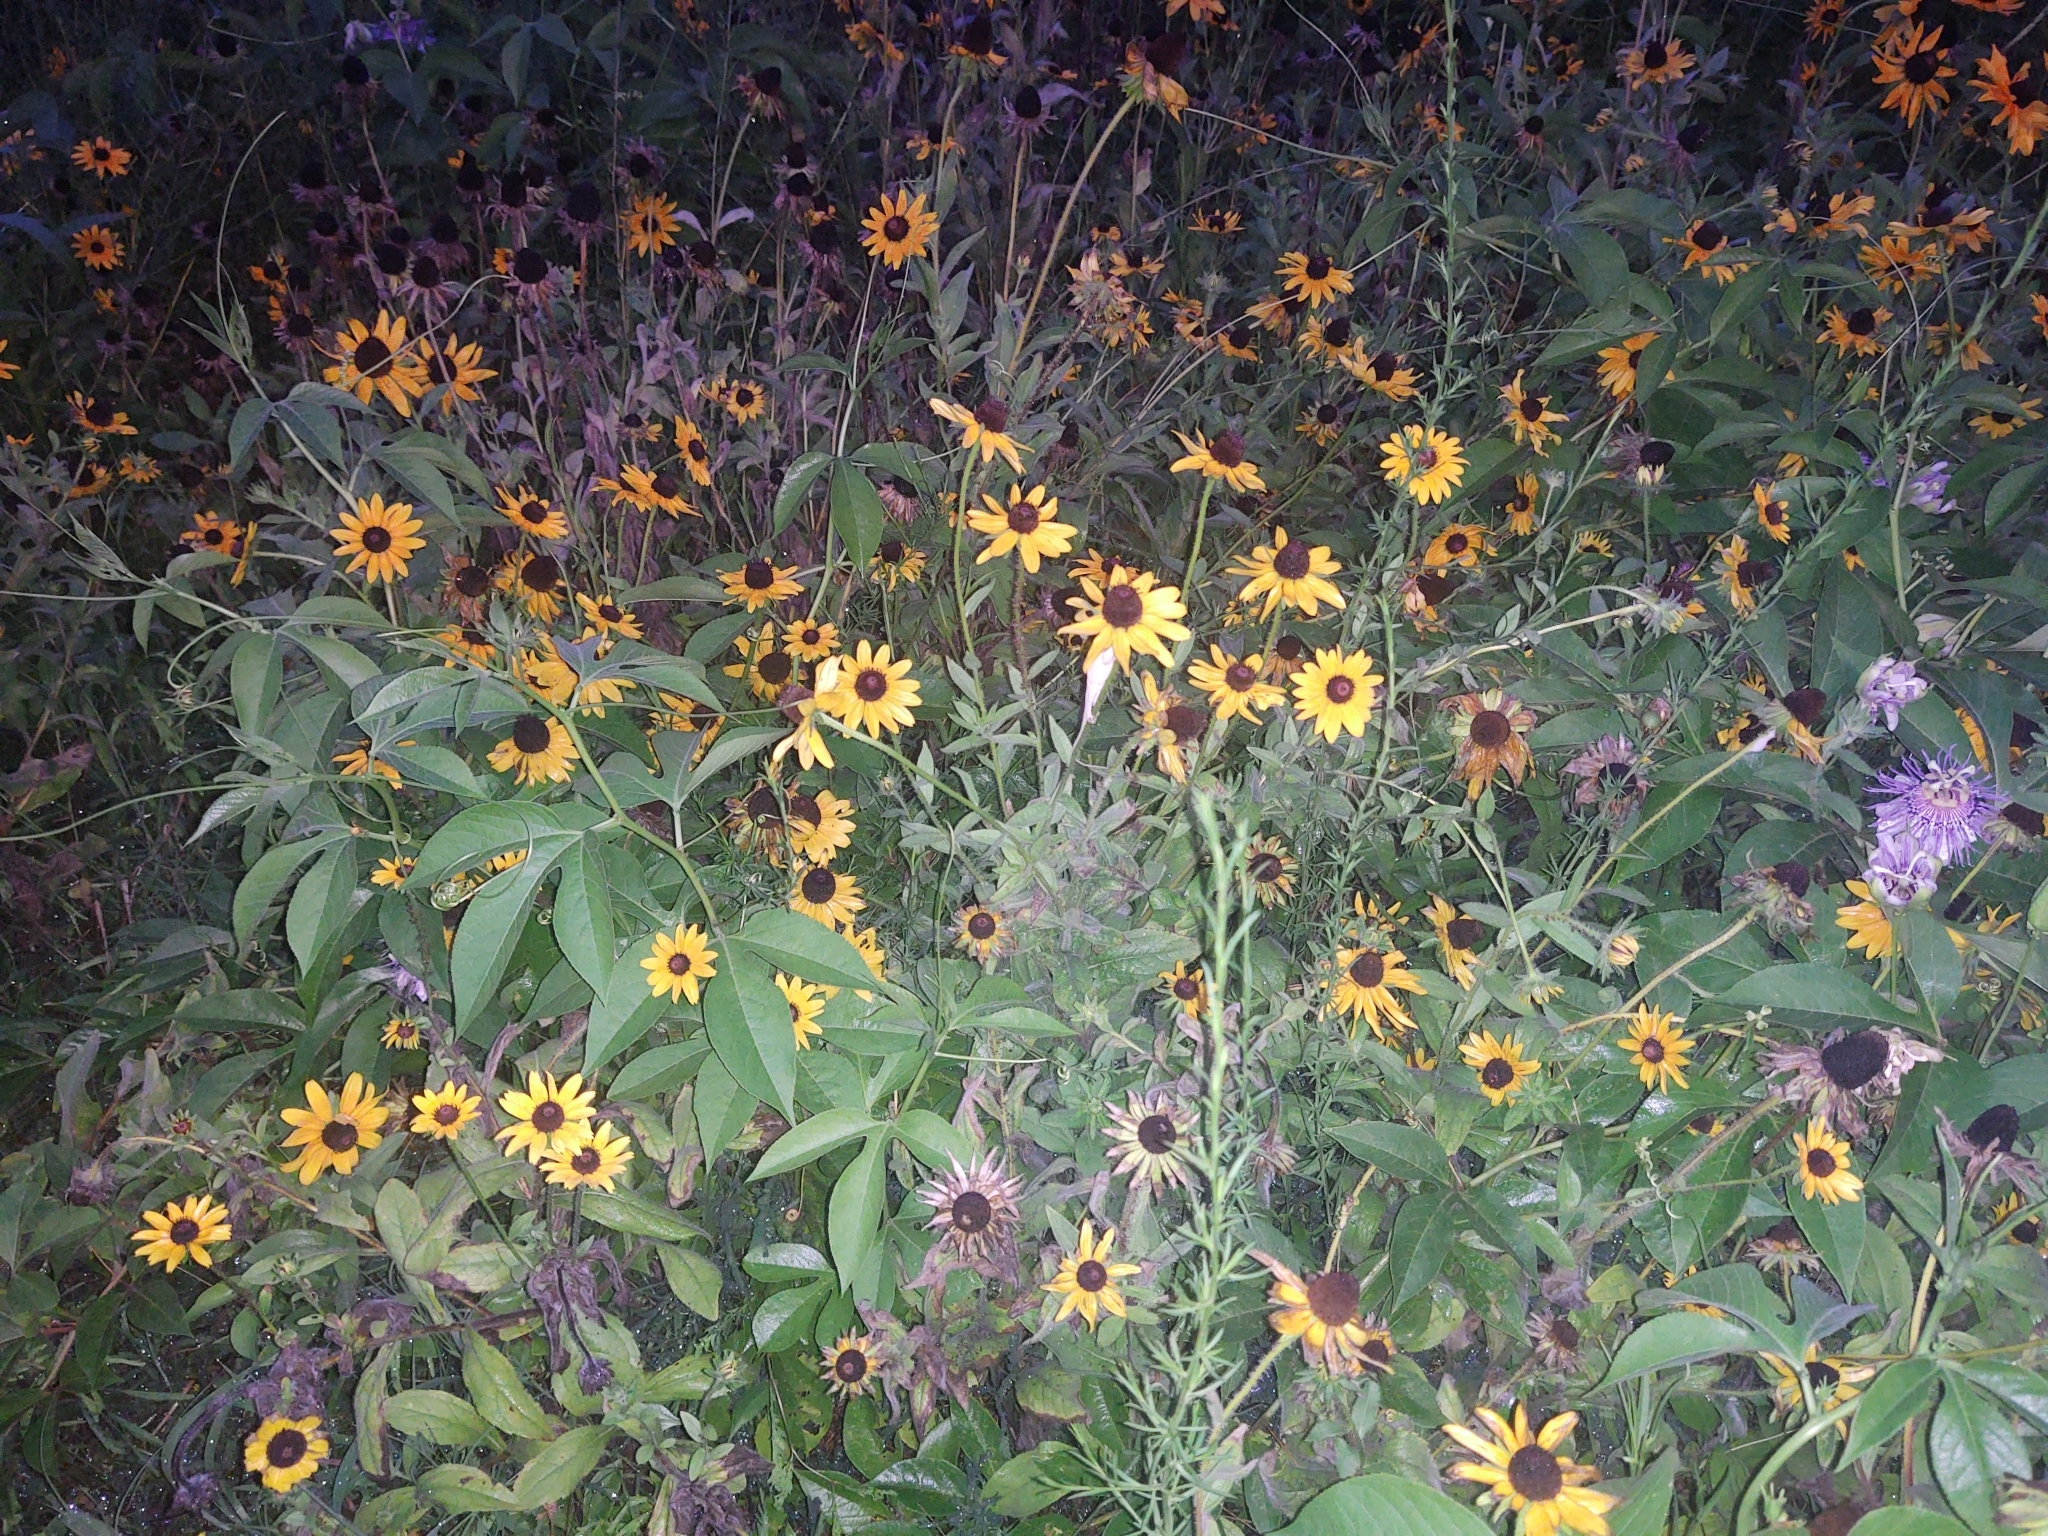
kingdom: Plantae
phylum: Tracheophyta
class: Magnoliopsida
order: Asterales
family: Asteraceae
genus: Rudbeckia
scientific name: Rudbeckia hirta
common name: Black-eyed-susan
